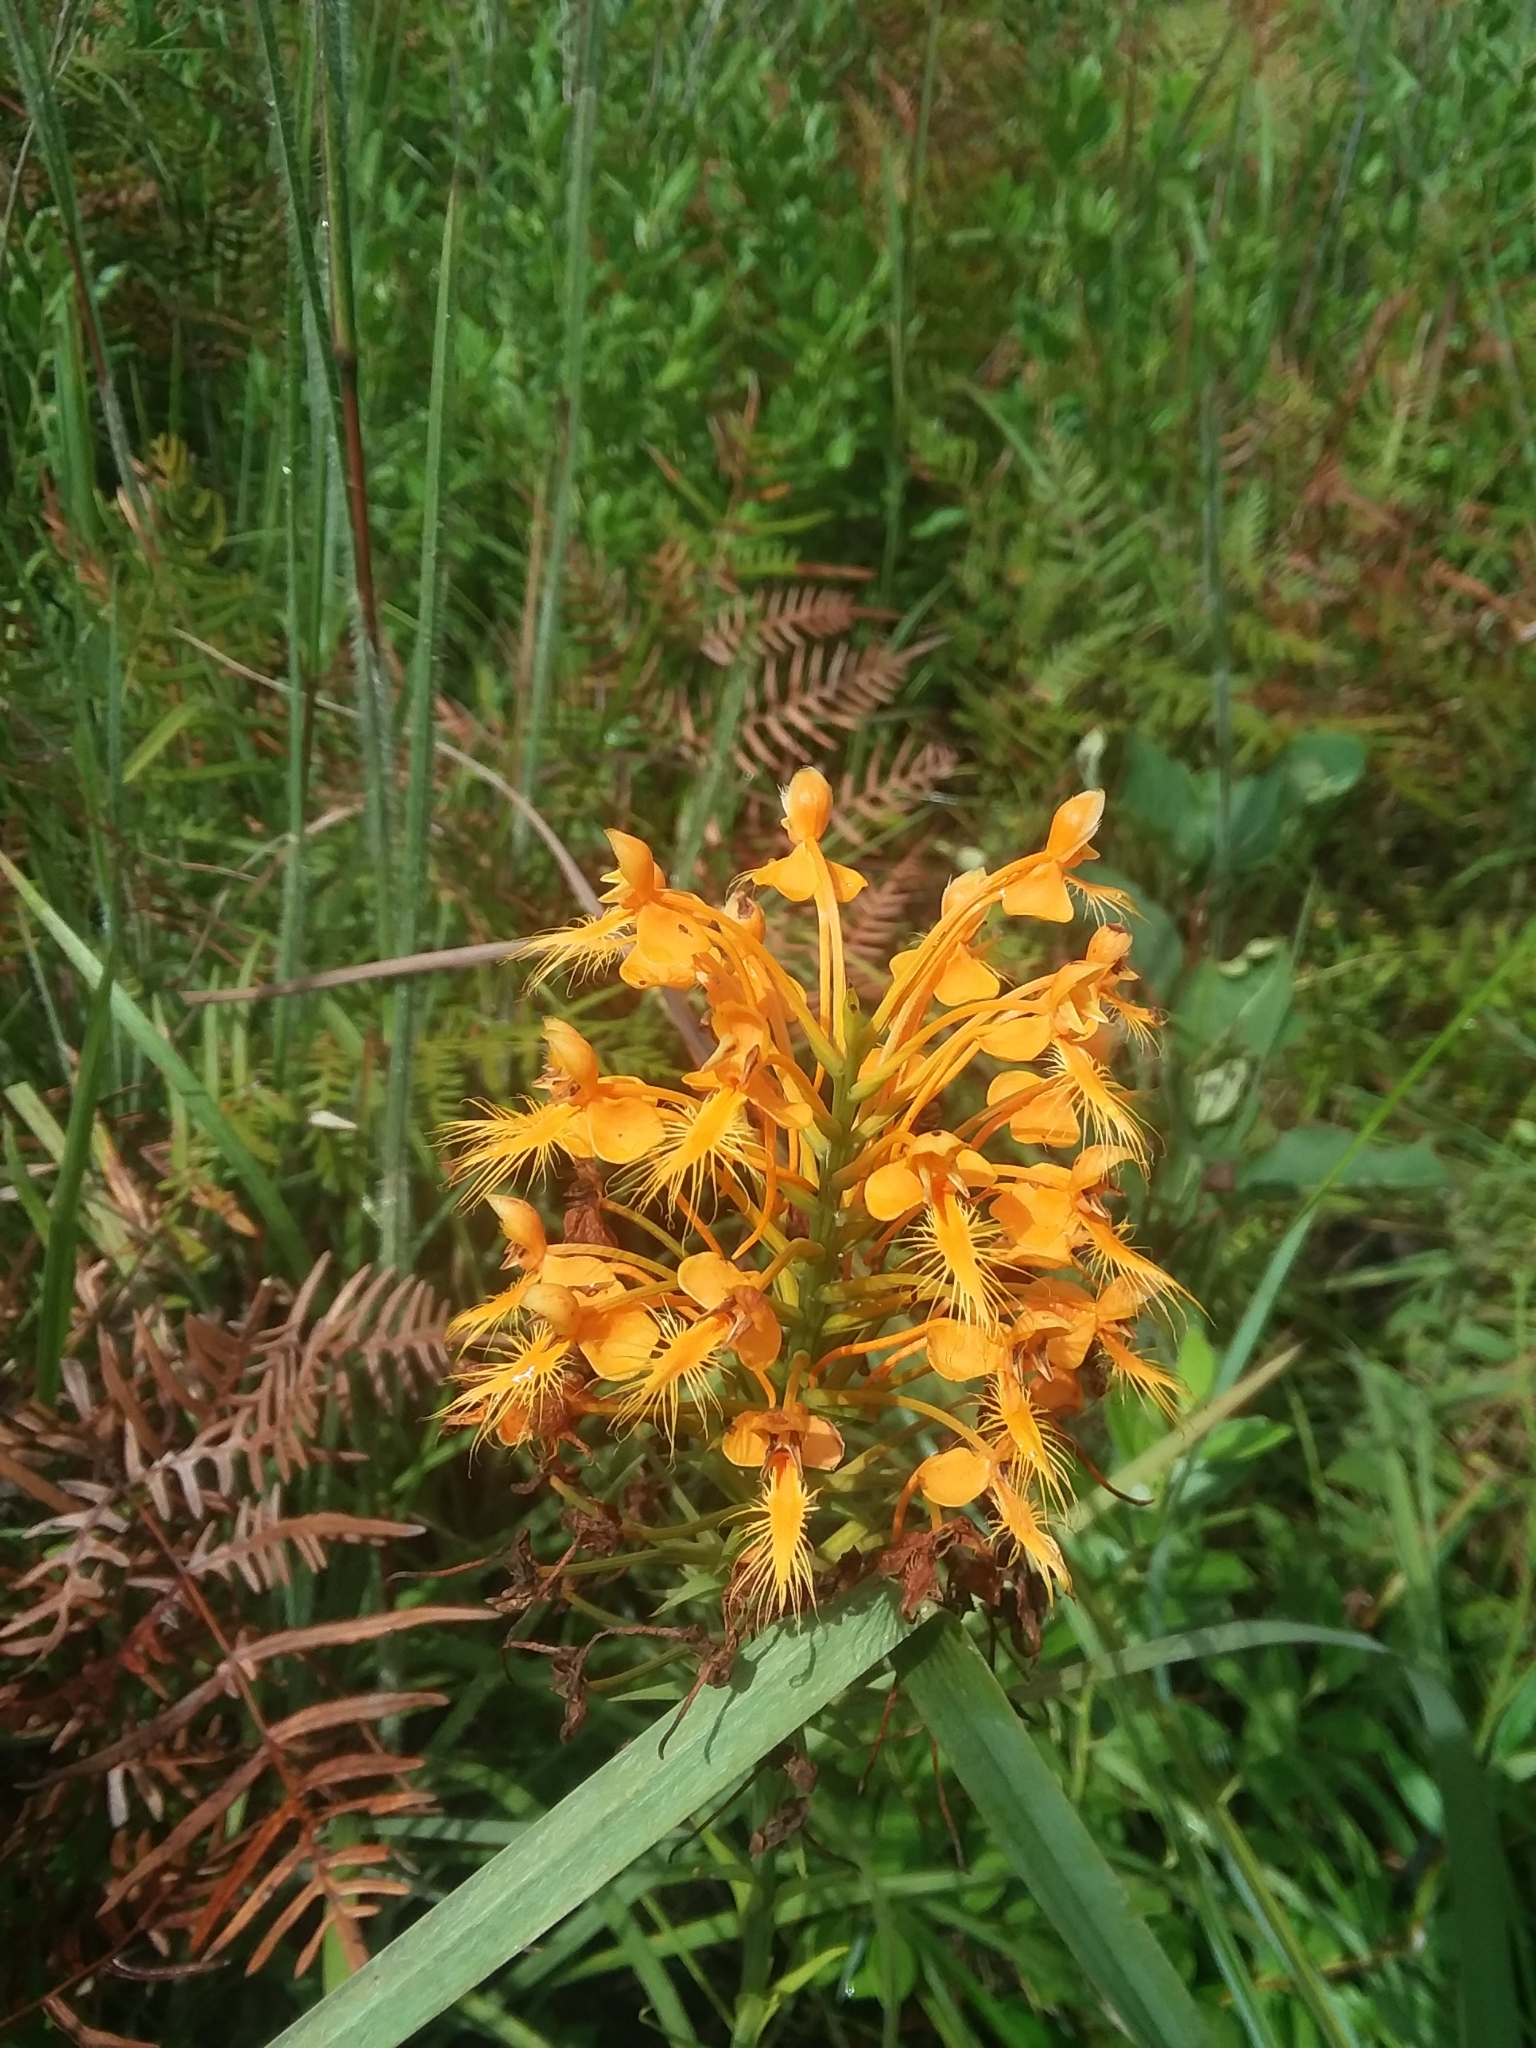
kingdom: Plantae
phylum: Tracheophyta
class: Liliopsida
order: Asparagales
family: Orchidaceae
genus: Platanthera
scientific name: Platanthera ciliaris
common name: Yellow fringed orchid
